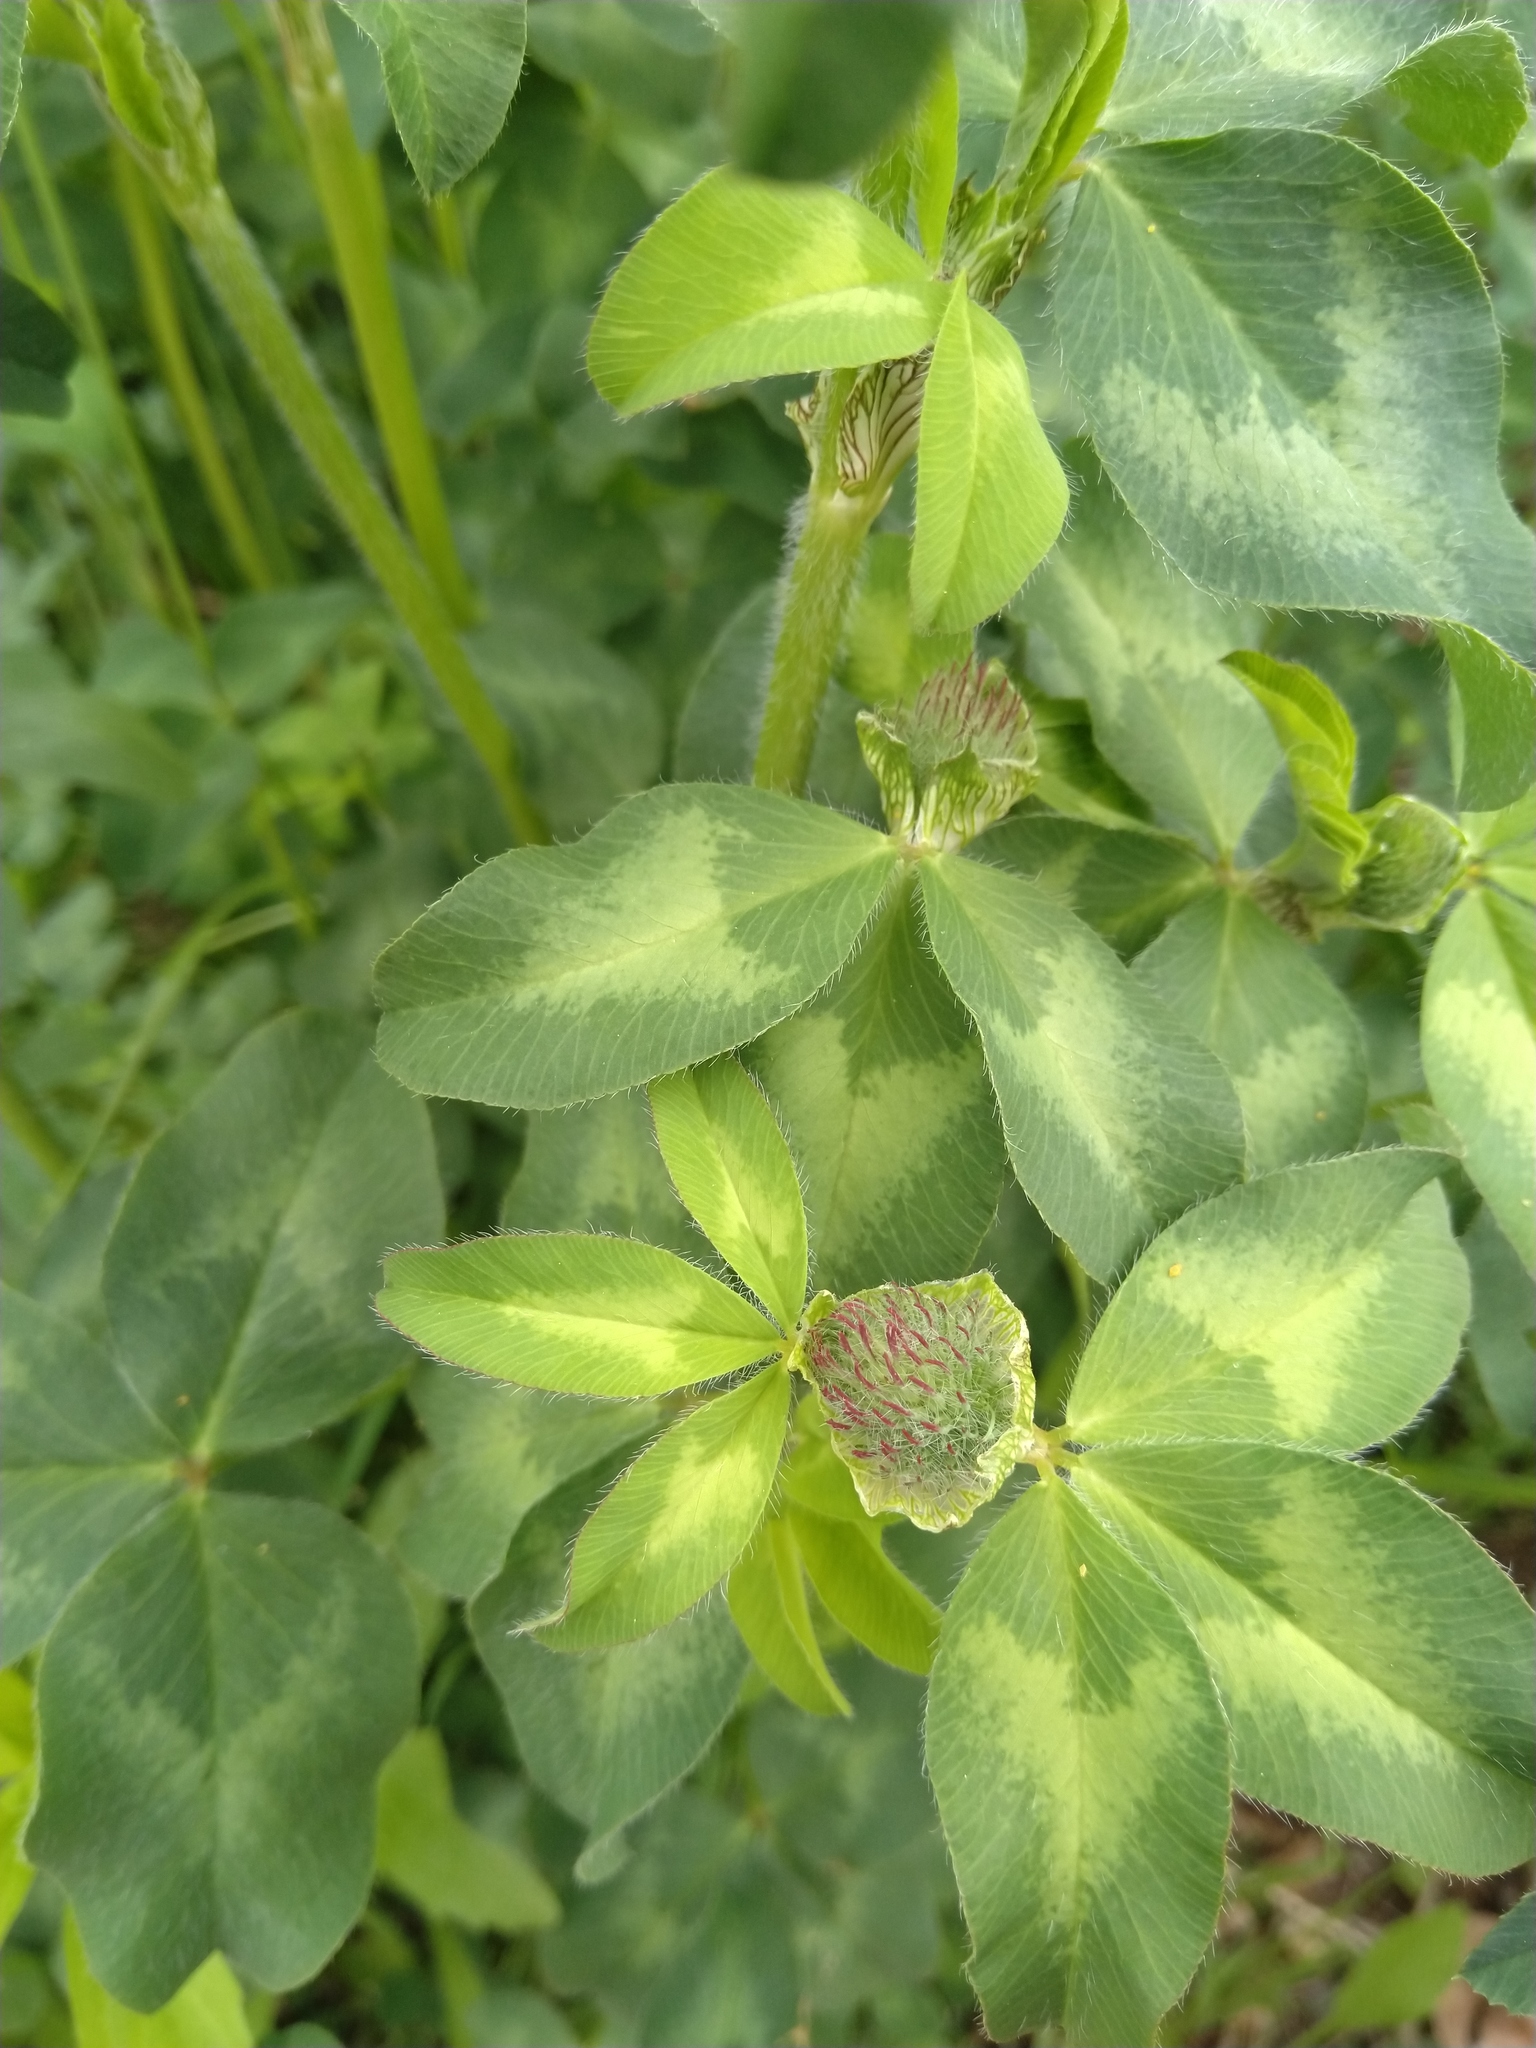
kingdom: Plantae
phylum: Tracheophyta
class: Magnoliopsida
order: Fabales
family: Fabaceae
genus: Trifolium
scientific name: Trifolium pratense
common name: Red clover
